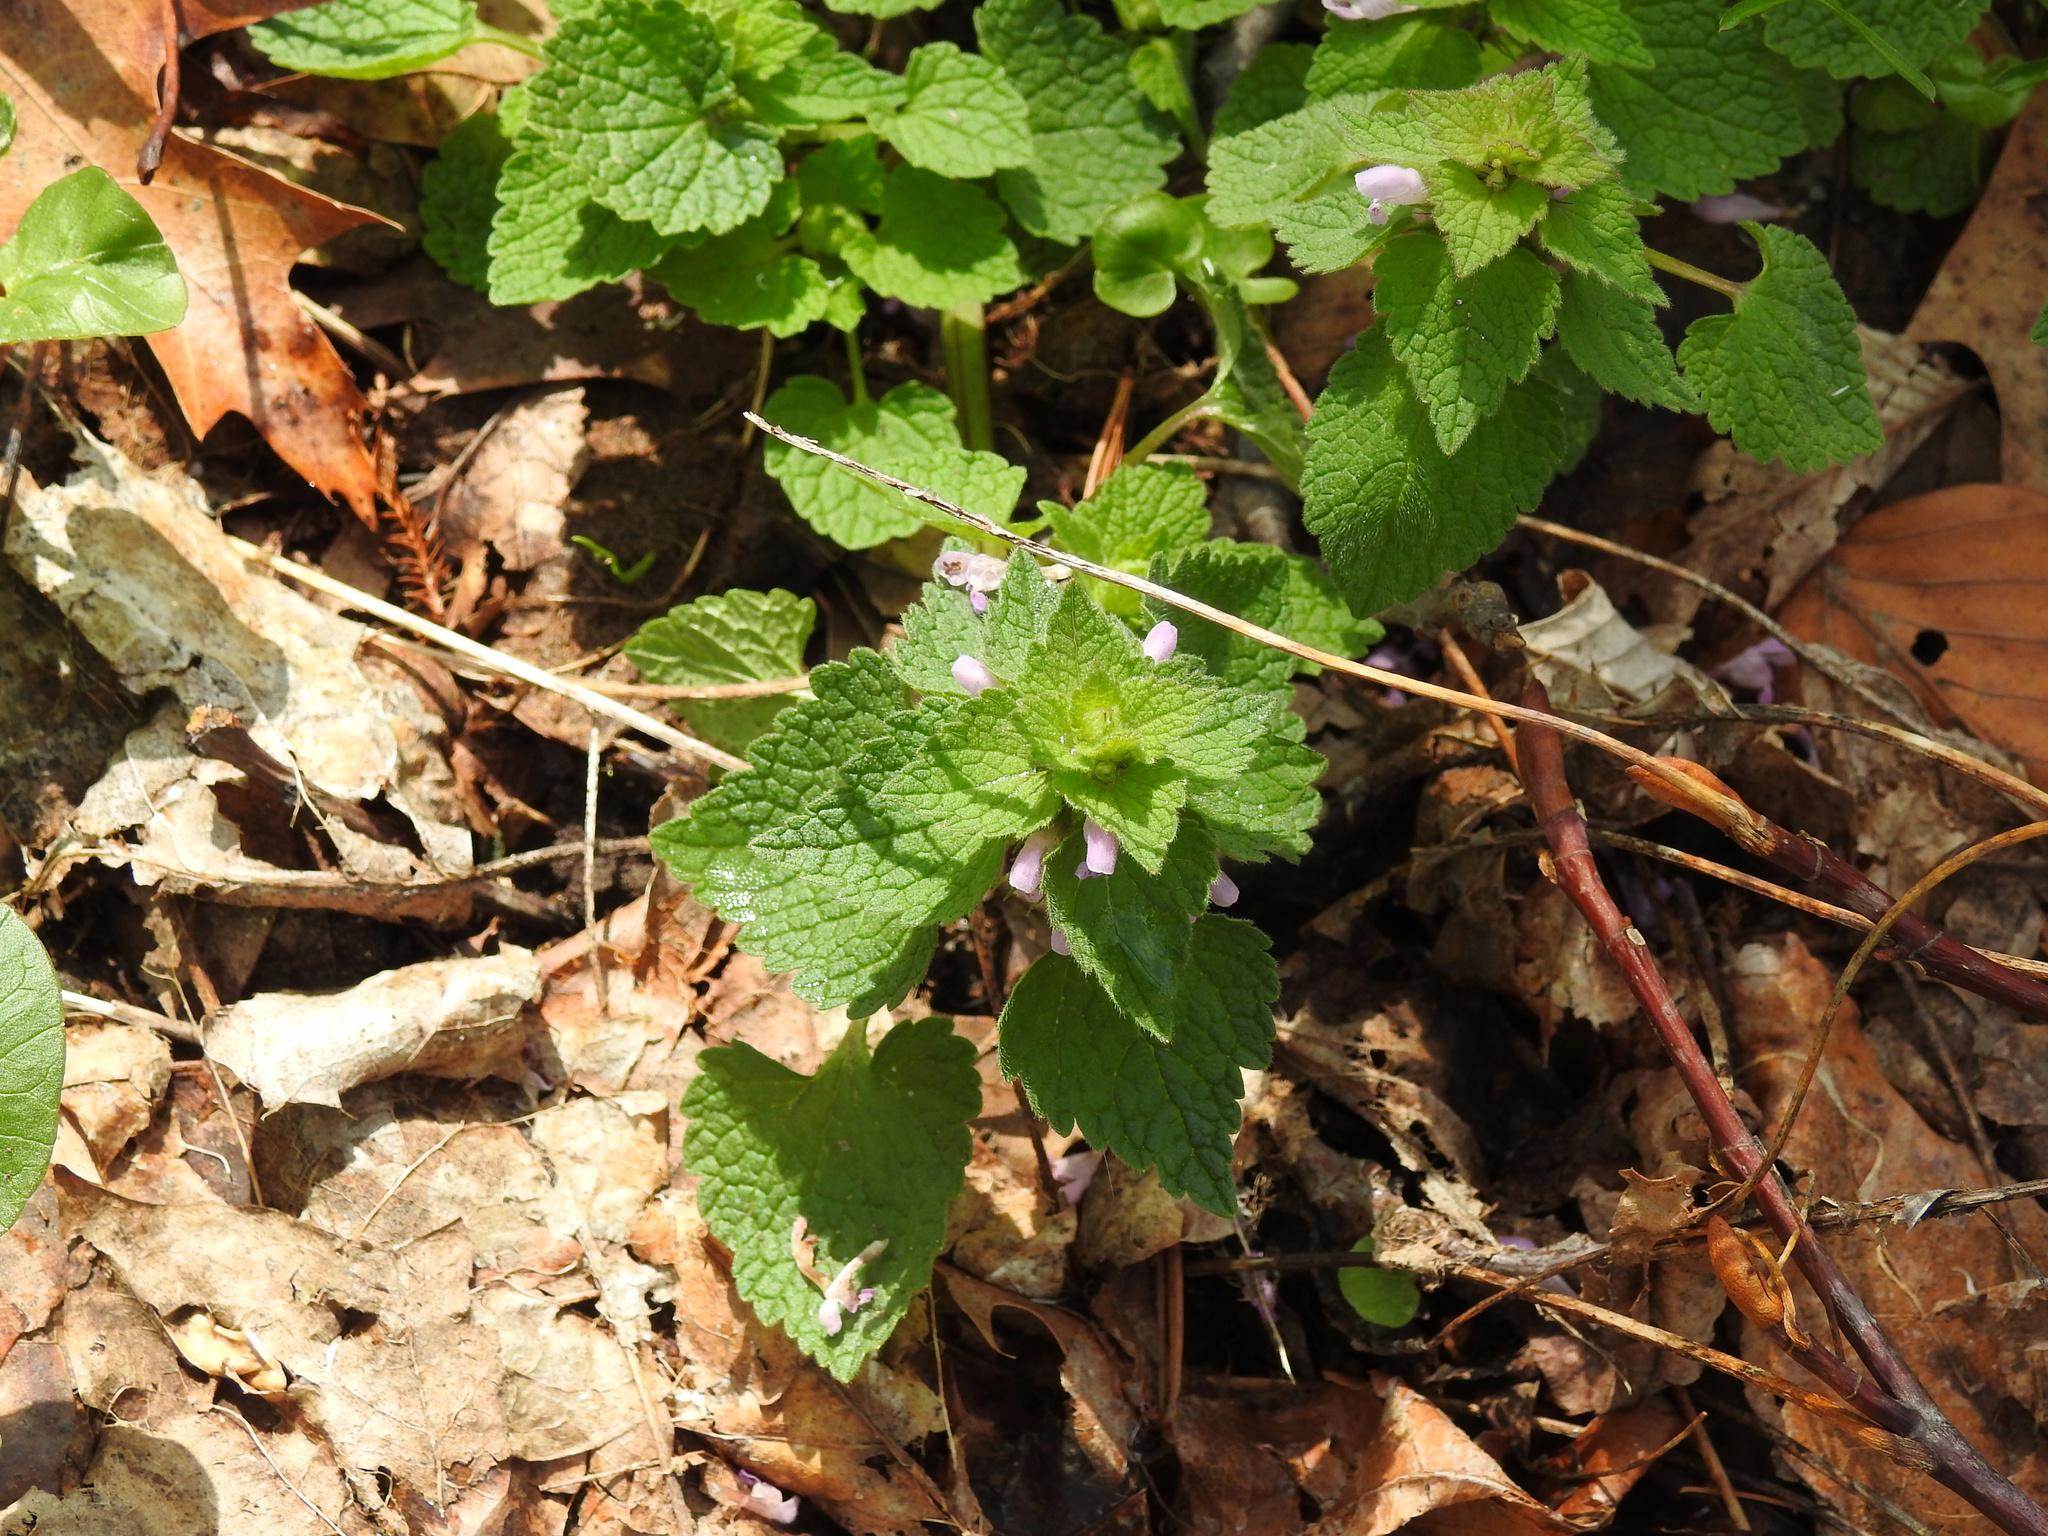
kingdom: Plantae
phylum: Tracheophyta
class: Magnoliopsida
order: Lamiales
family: Lamiaceae
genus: Lamium
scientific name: Lamium purpureum
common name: Red dead-nettle
